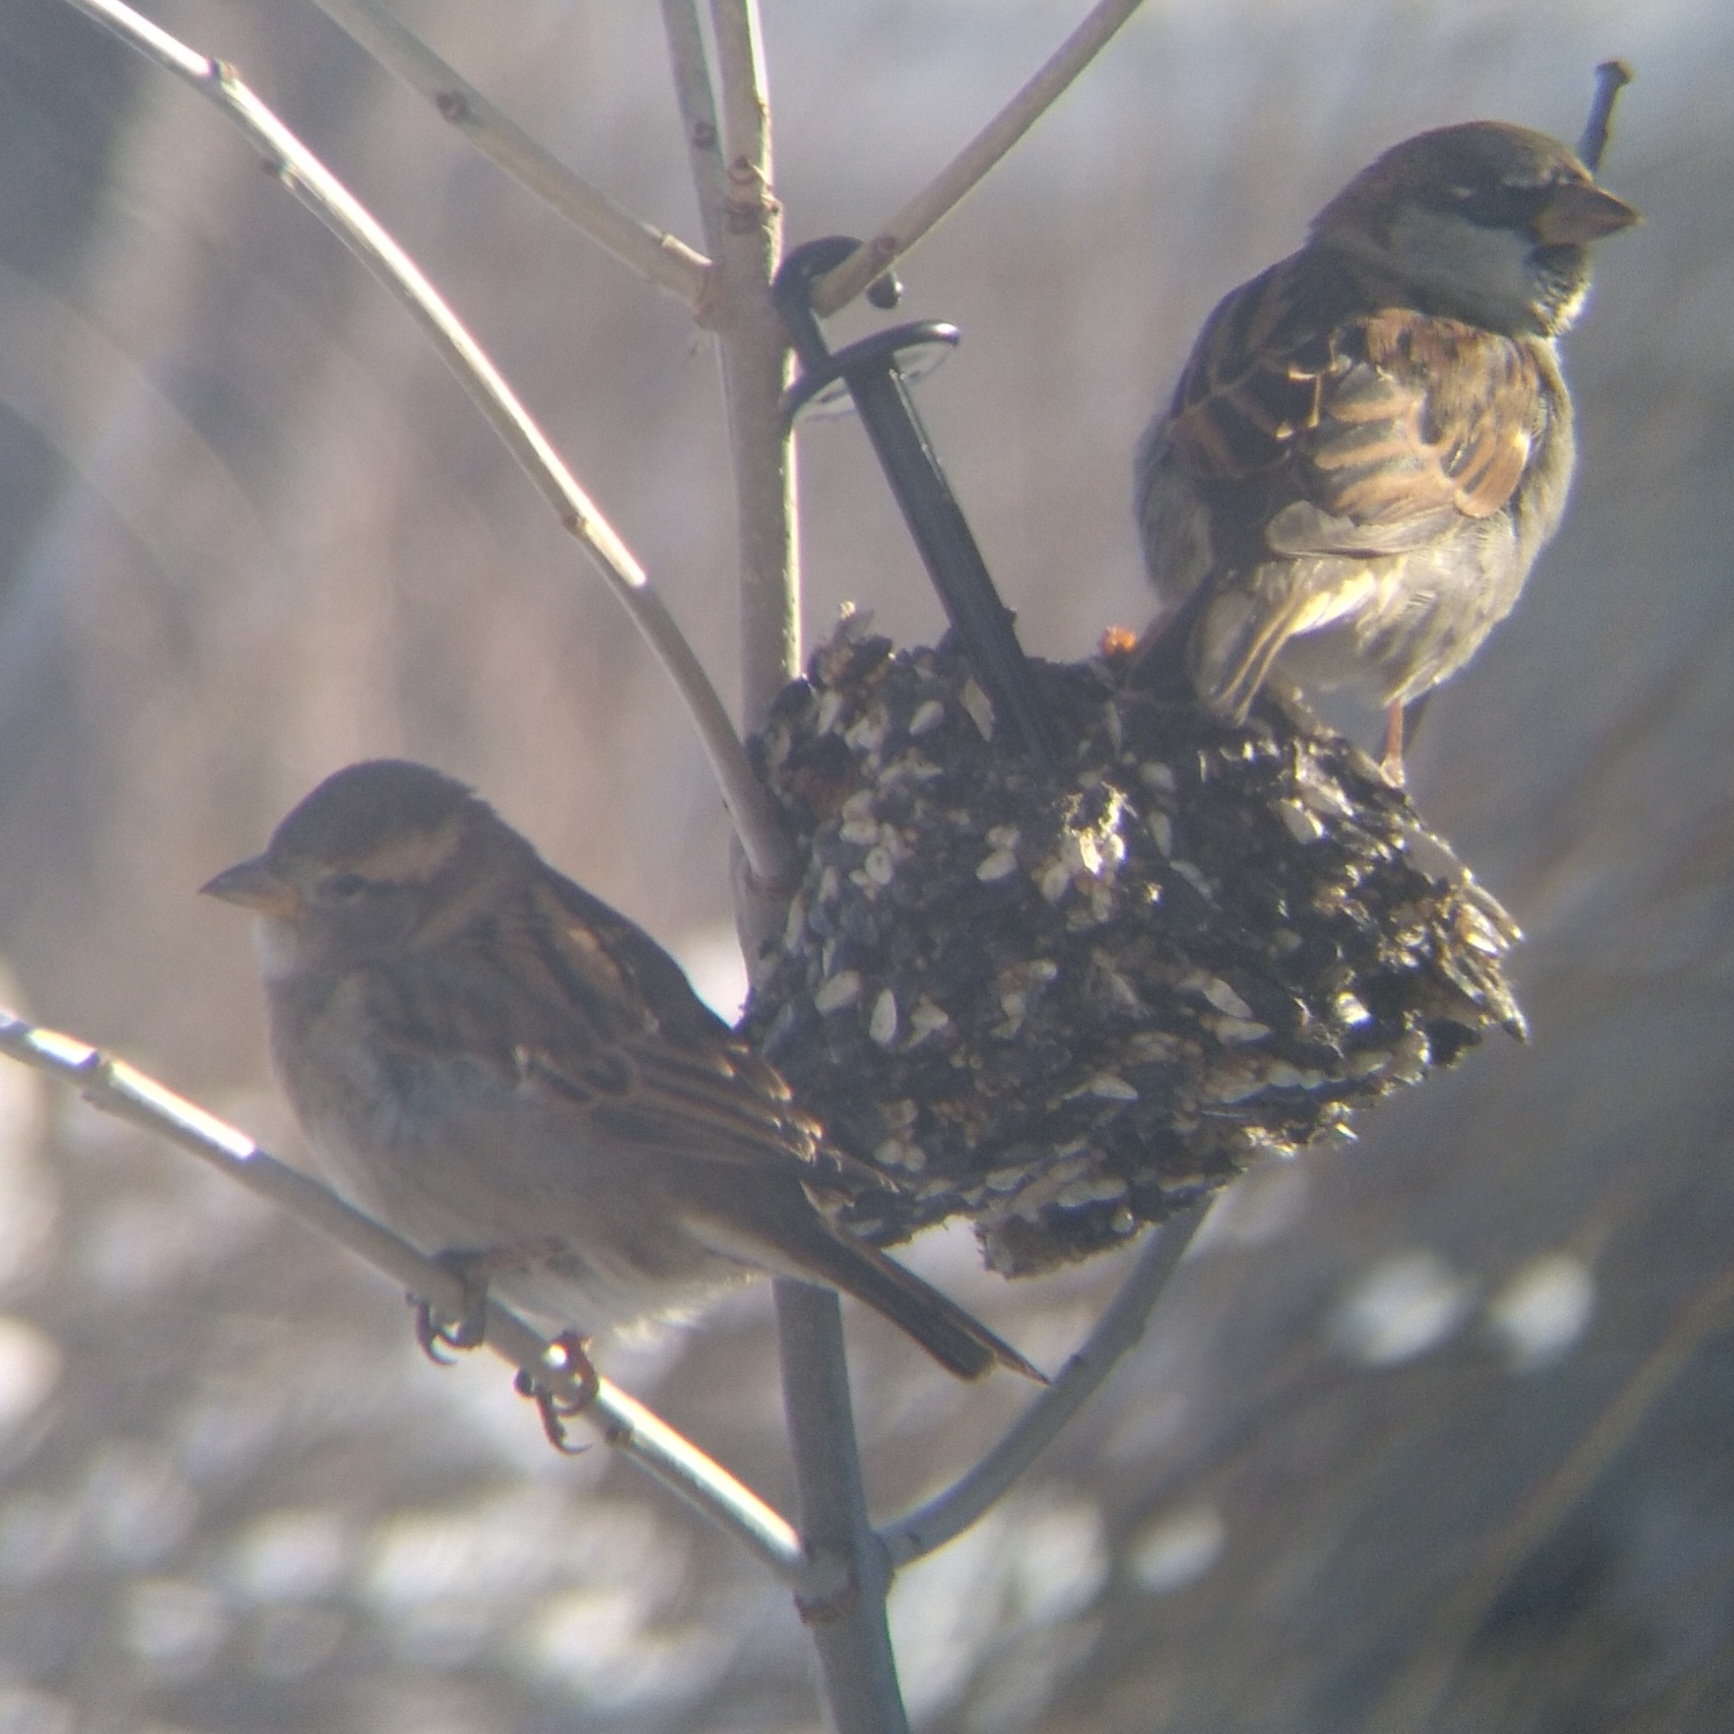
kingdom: Animalia
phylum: Chordata
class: Aves
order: Passeriformes
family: Passeridae
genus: Passer
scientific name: Passer domesticus
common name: House sparrow
